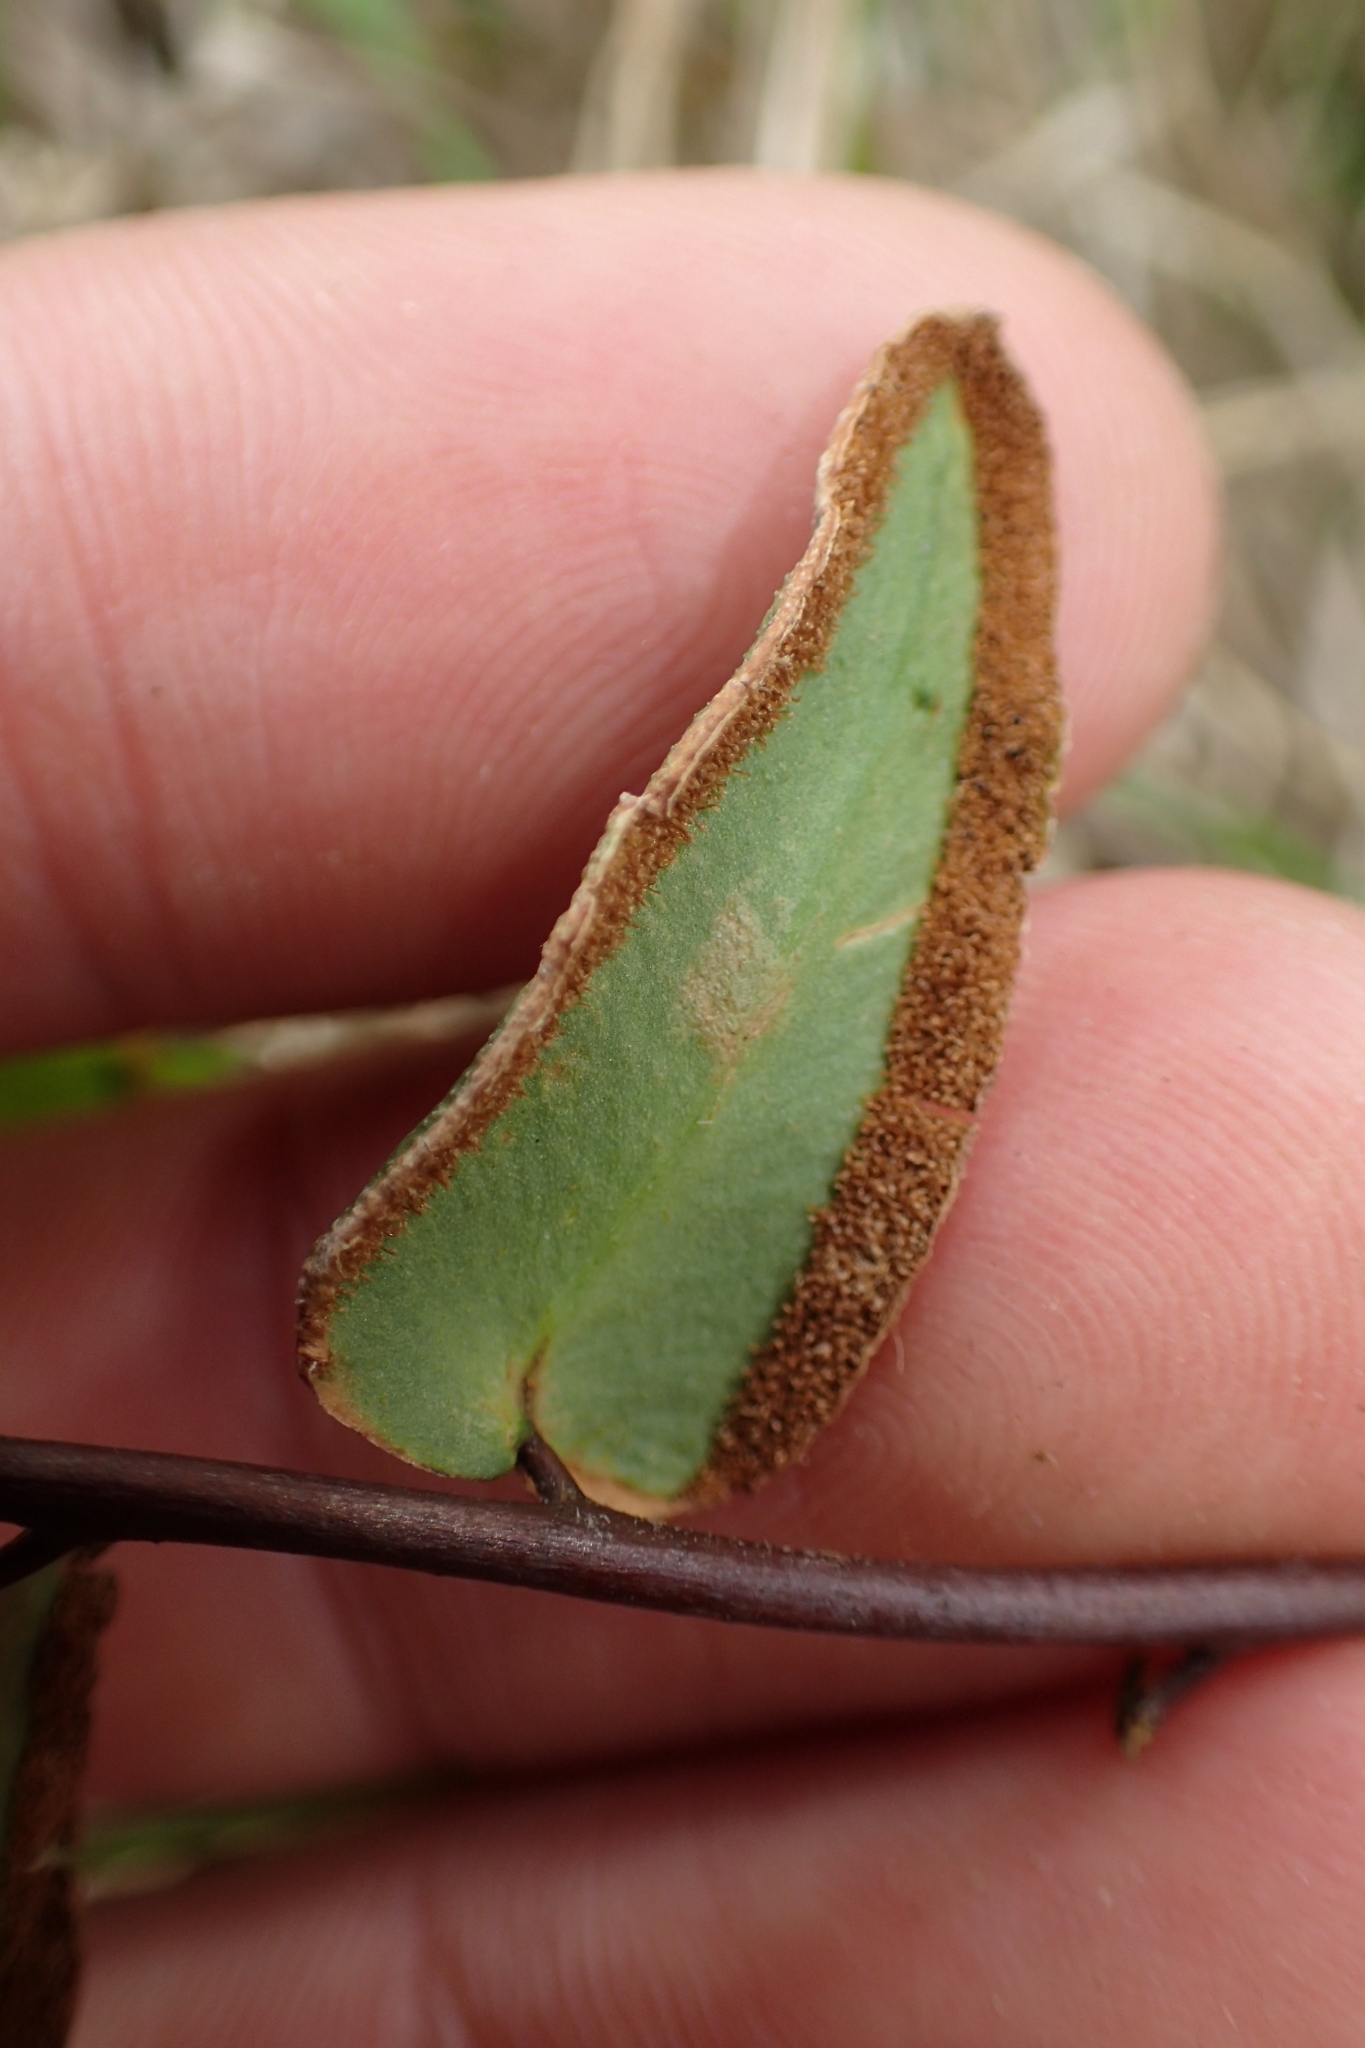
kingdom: Plantae
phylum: Tracheophyta
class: Polypodiopsida
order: Polypodiales
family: Pteridaceae
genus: Pellaea
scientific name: Pellaea calidirupium
